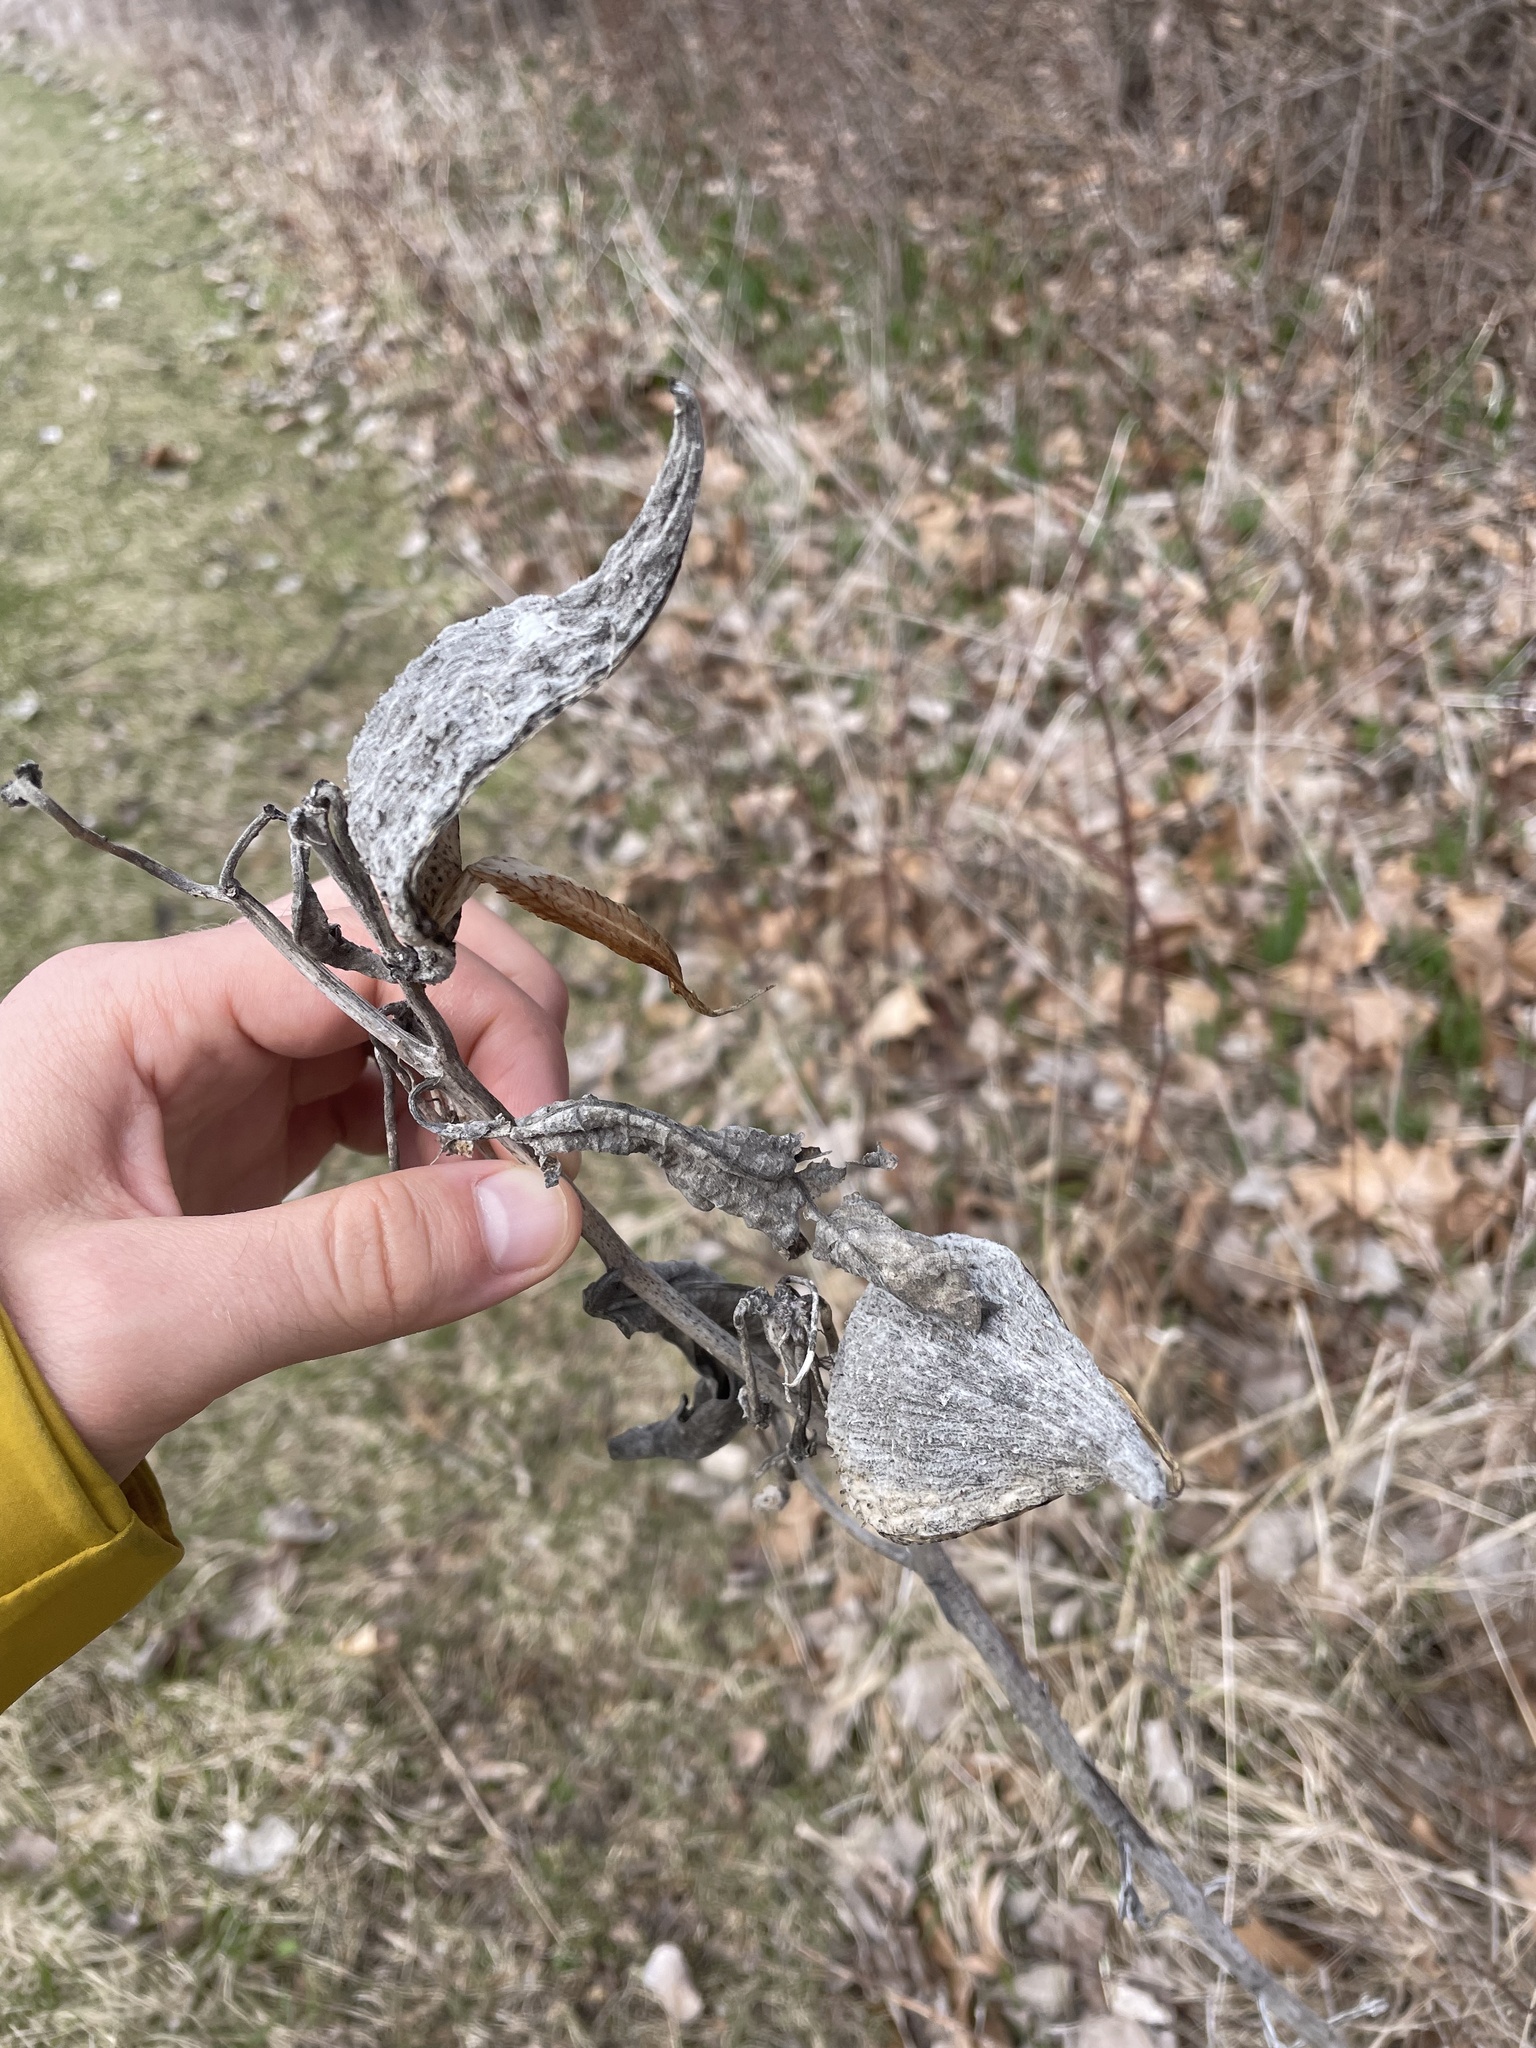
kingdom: Plantae
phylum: Tracheophyta
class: Magnoliopsida
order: Gentianales
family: Apocynaceae
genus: Asclepias
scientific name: Asclepias syriaca
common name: Common milkweed
